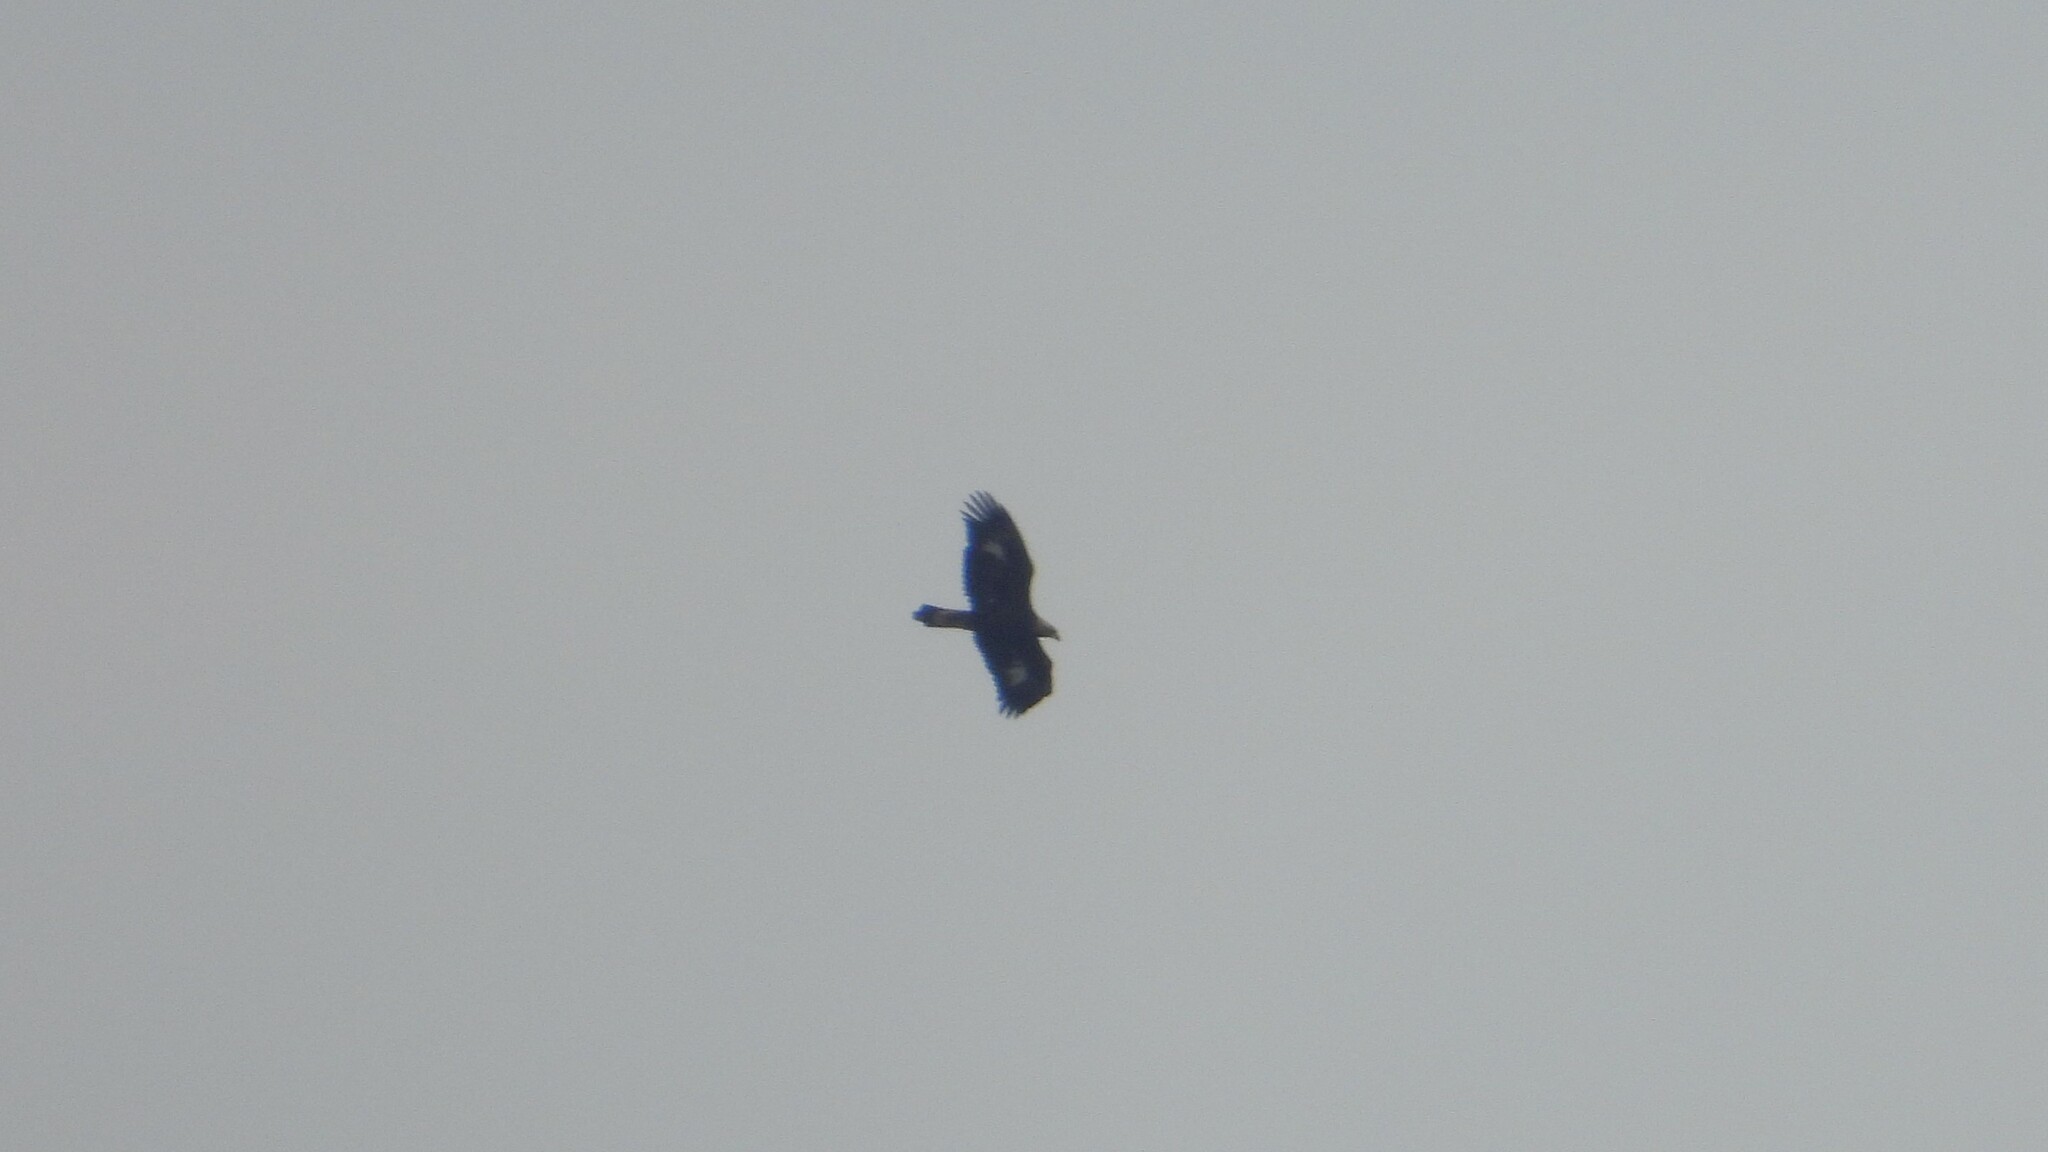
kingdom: Animalia
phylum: Chordata
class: Aves
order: Accipitriformes
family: Accipitridae
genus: Aquila
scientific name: Aquila chrysaetos
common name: Golden eagle
